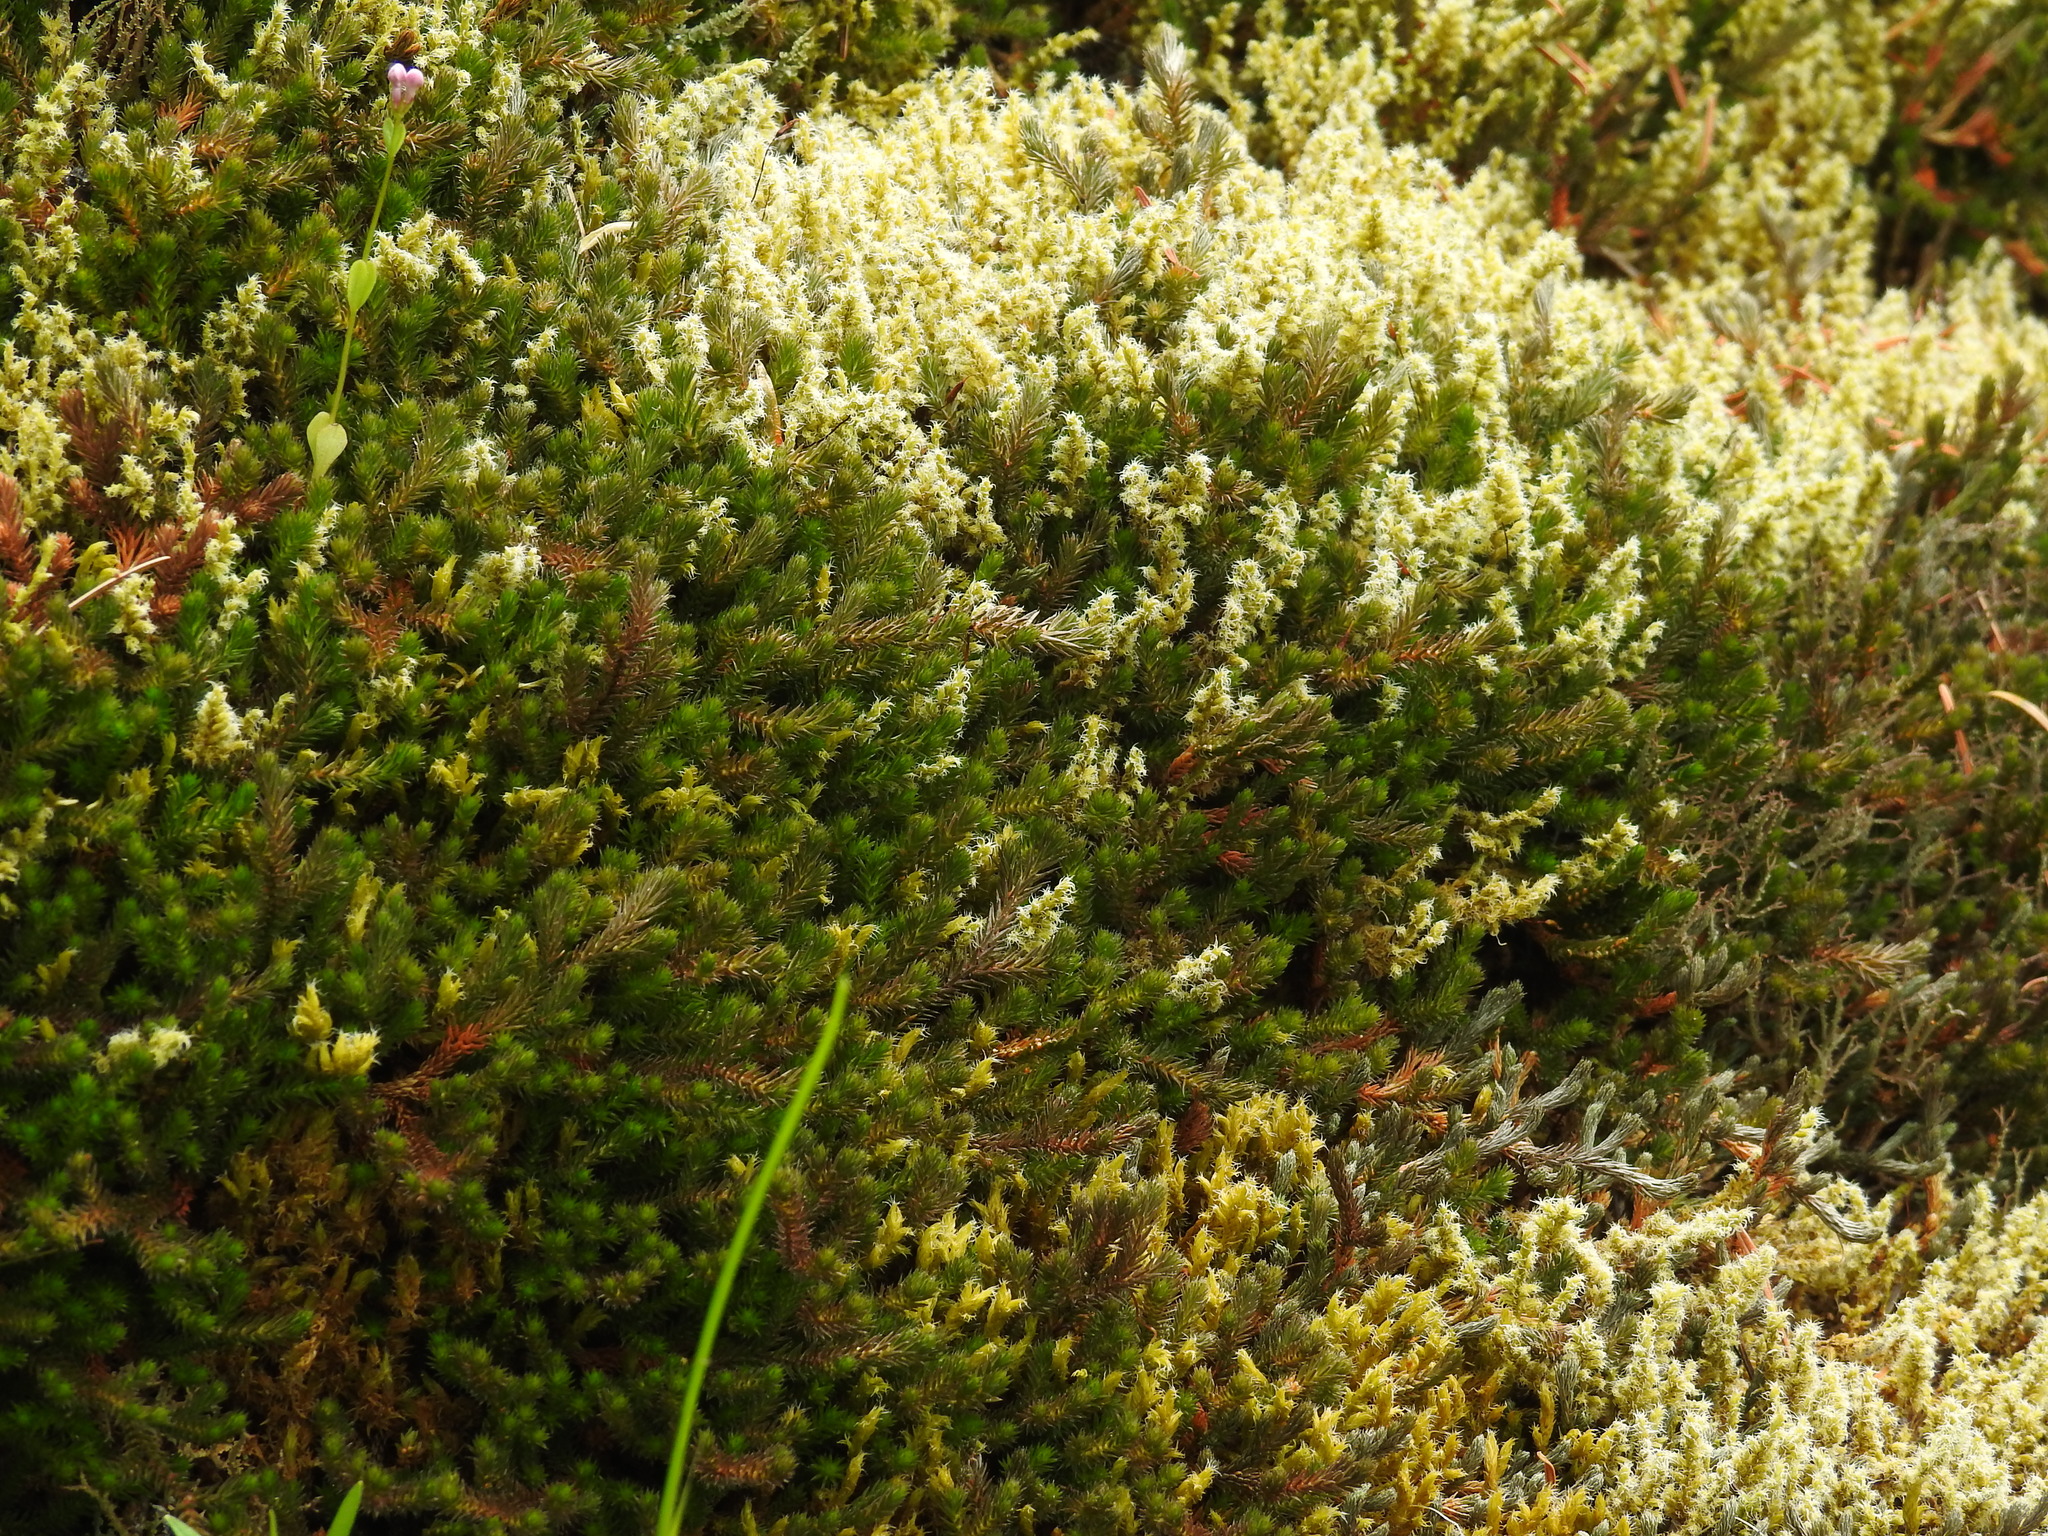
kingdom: Plantae
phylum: Tracheophyta
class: Lycopodiopsida
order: Selaginellales
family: Selaginellaceae
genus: Selaginella
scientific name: Selaginella wallacei
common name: Wallace's selaginella
